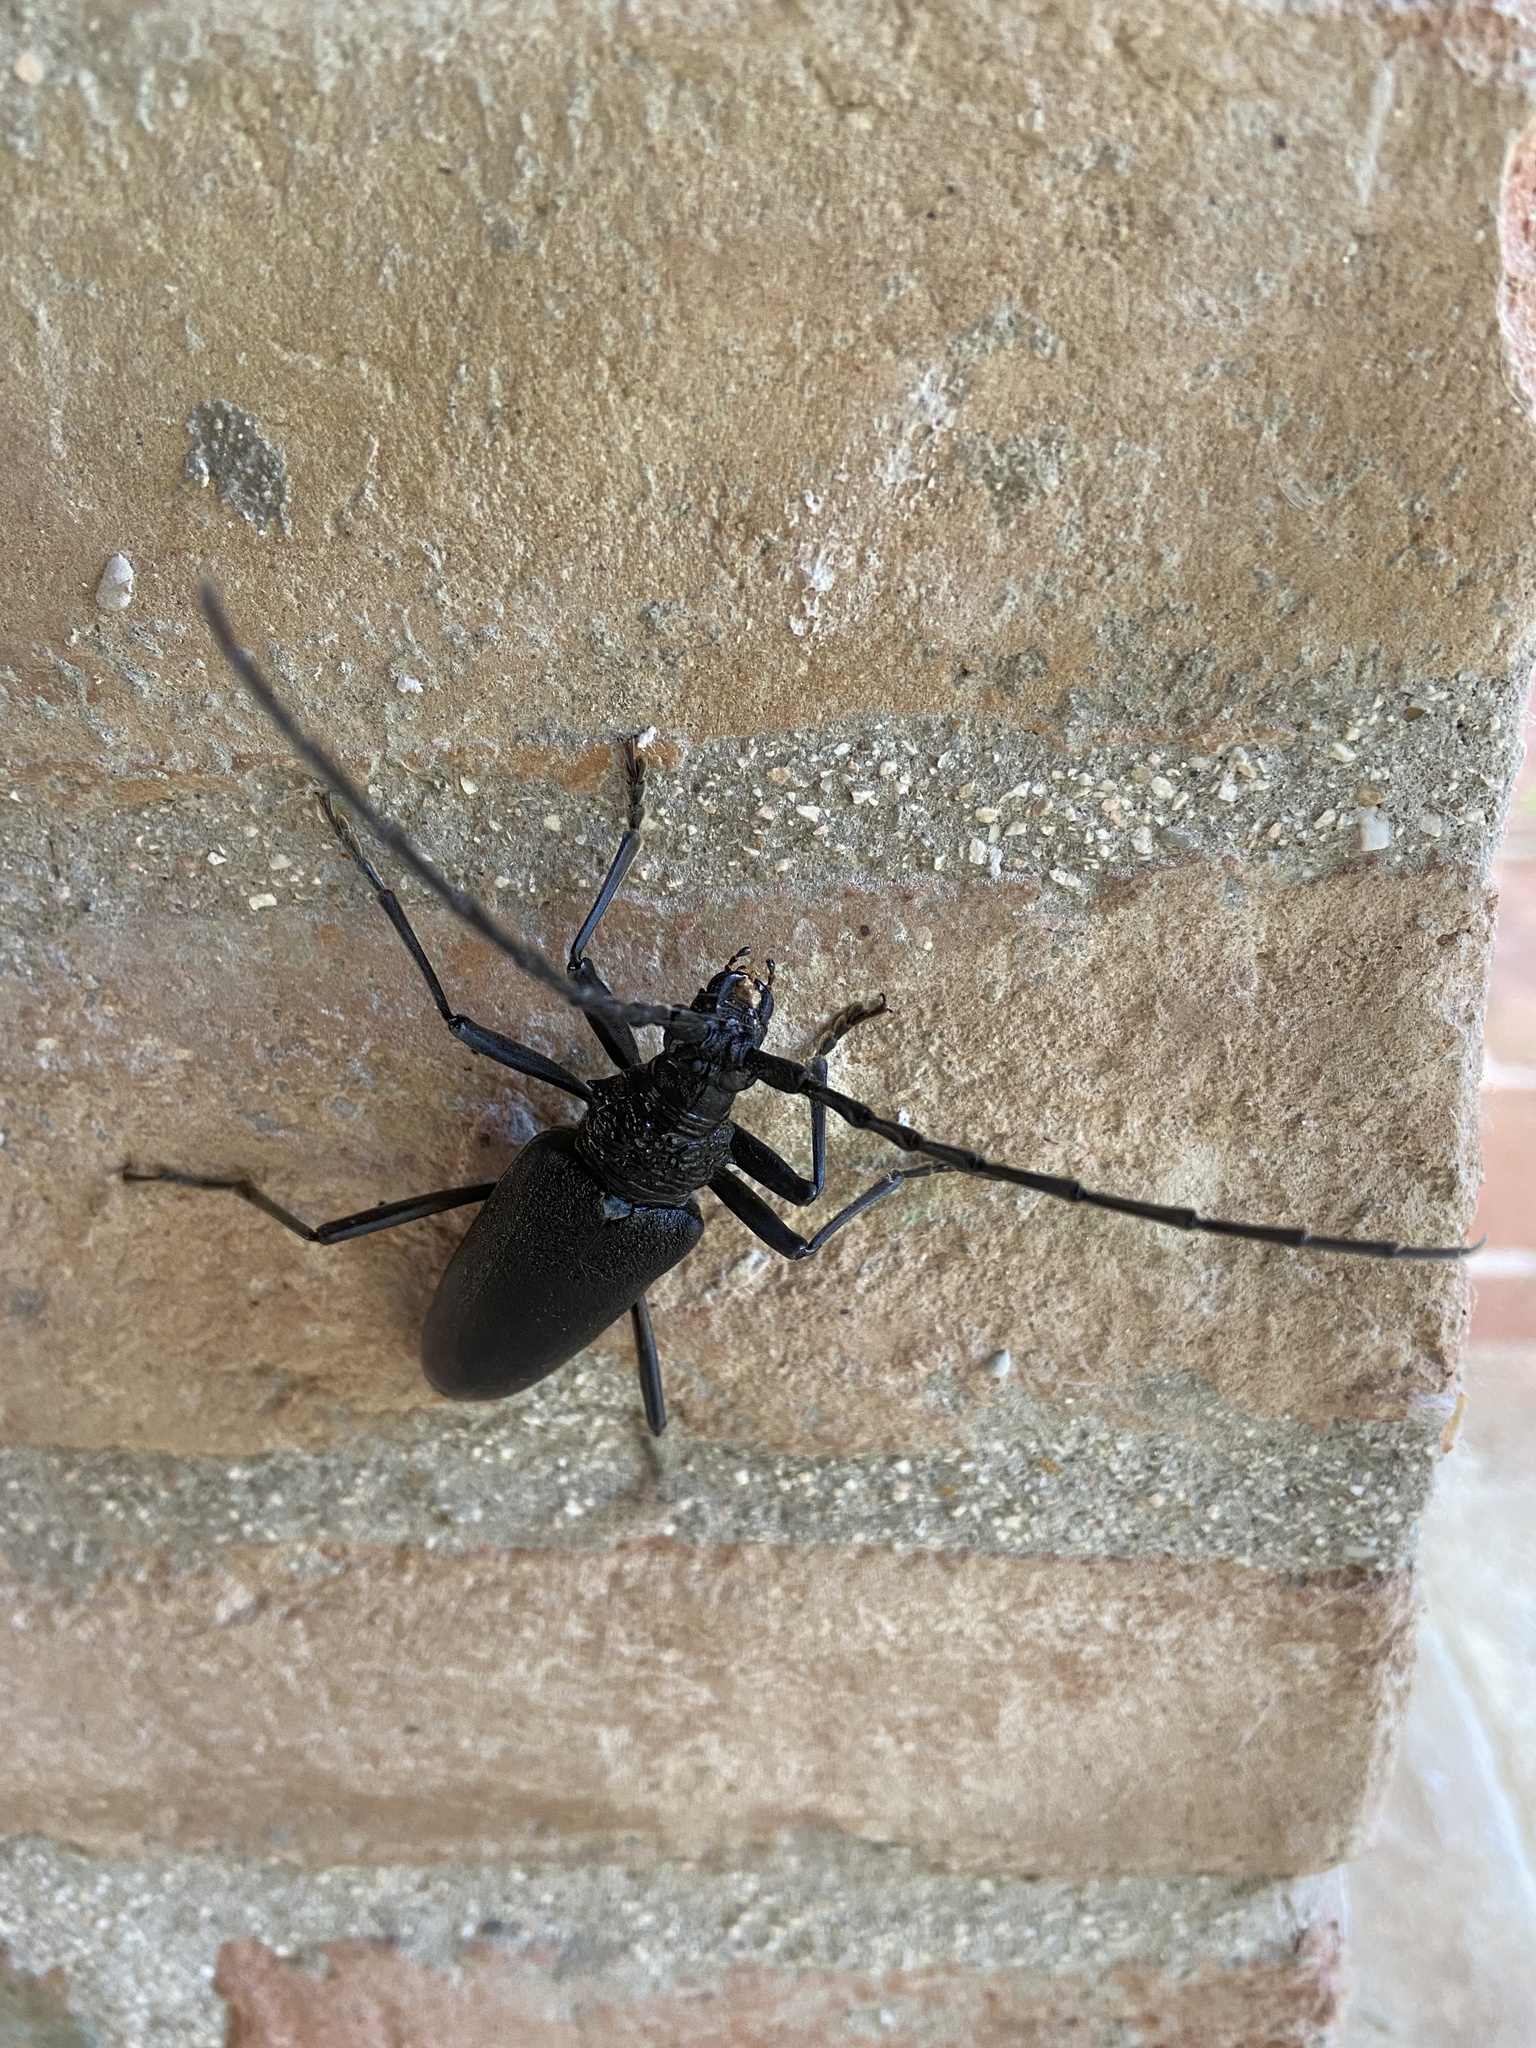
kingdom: Animalia
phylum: Arthropoda
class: Insecta
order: Coleoptera
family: Cerambycidae
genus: Cerambyx
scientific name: Cerambyx cerdo
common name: Cerambyx longicorn
